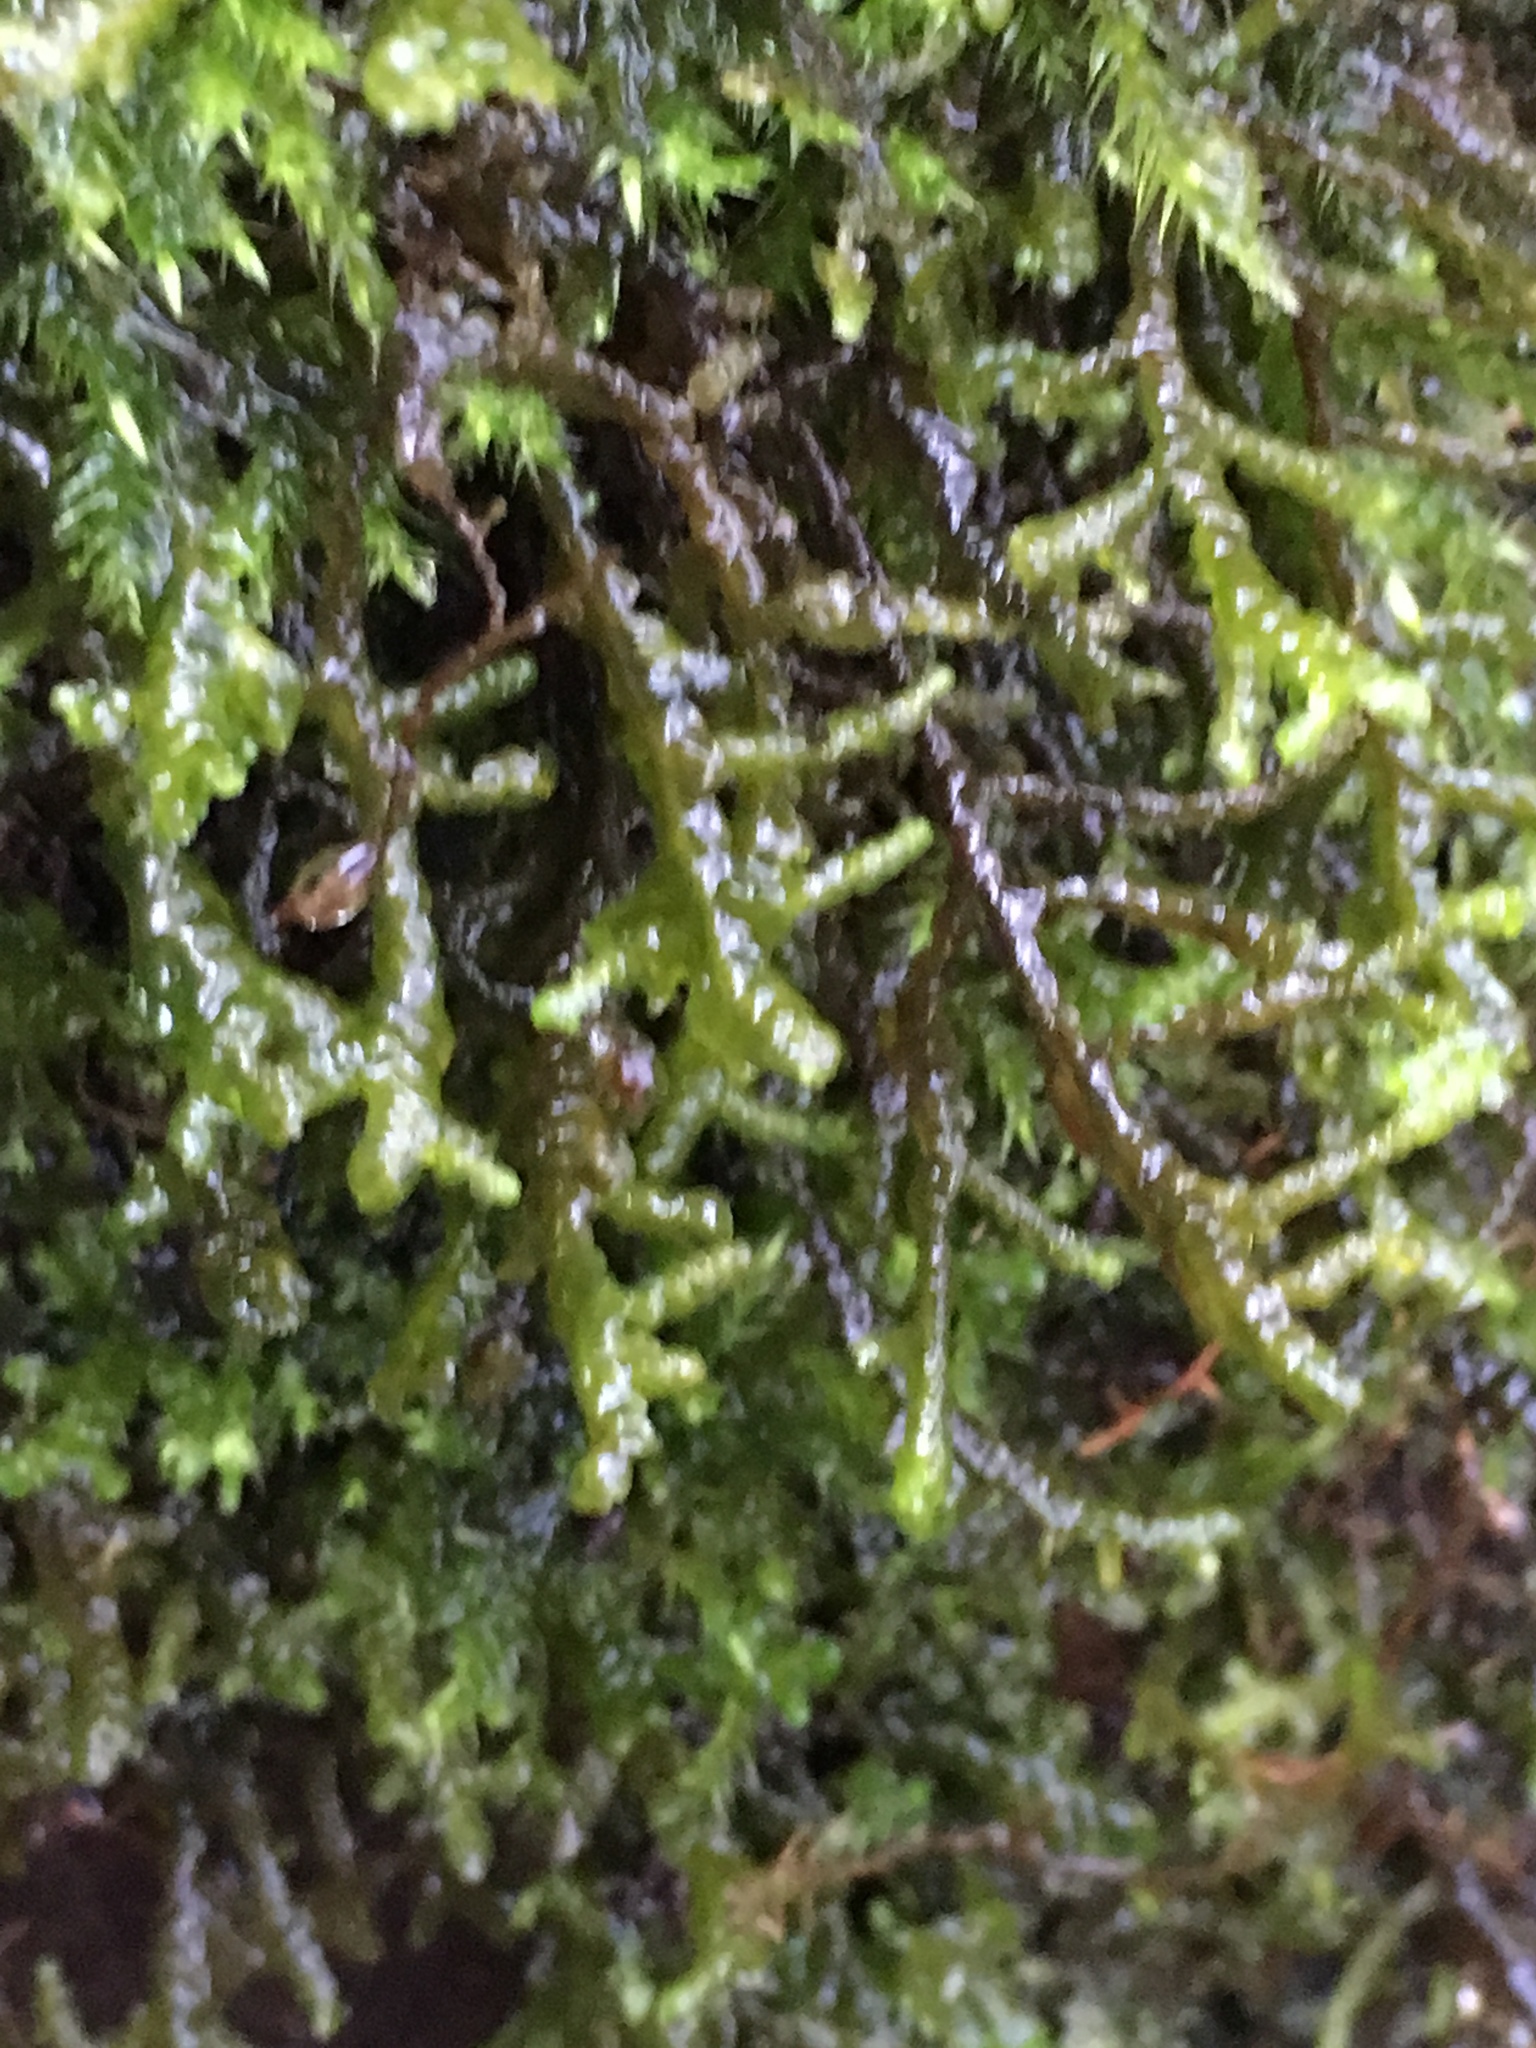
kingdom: Plantae
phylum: Marchantiophyta
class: Jungermanniopsida
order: Porellales
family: Porellaceae
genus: Porella
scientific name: Porella navicularis
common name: Tree ruffle liverwort
